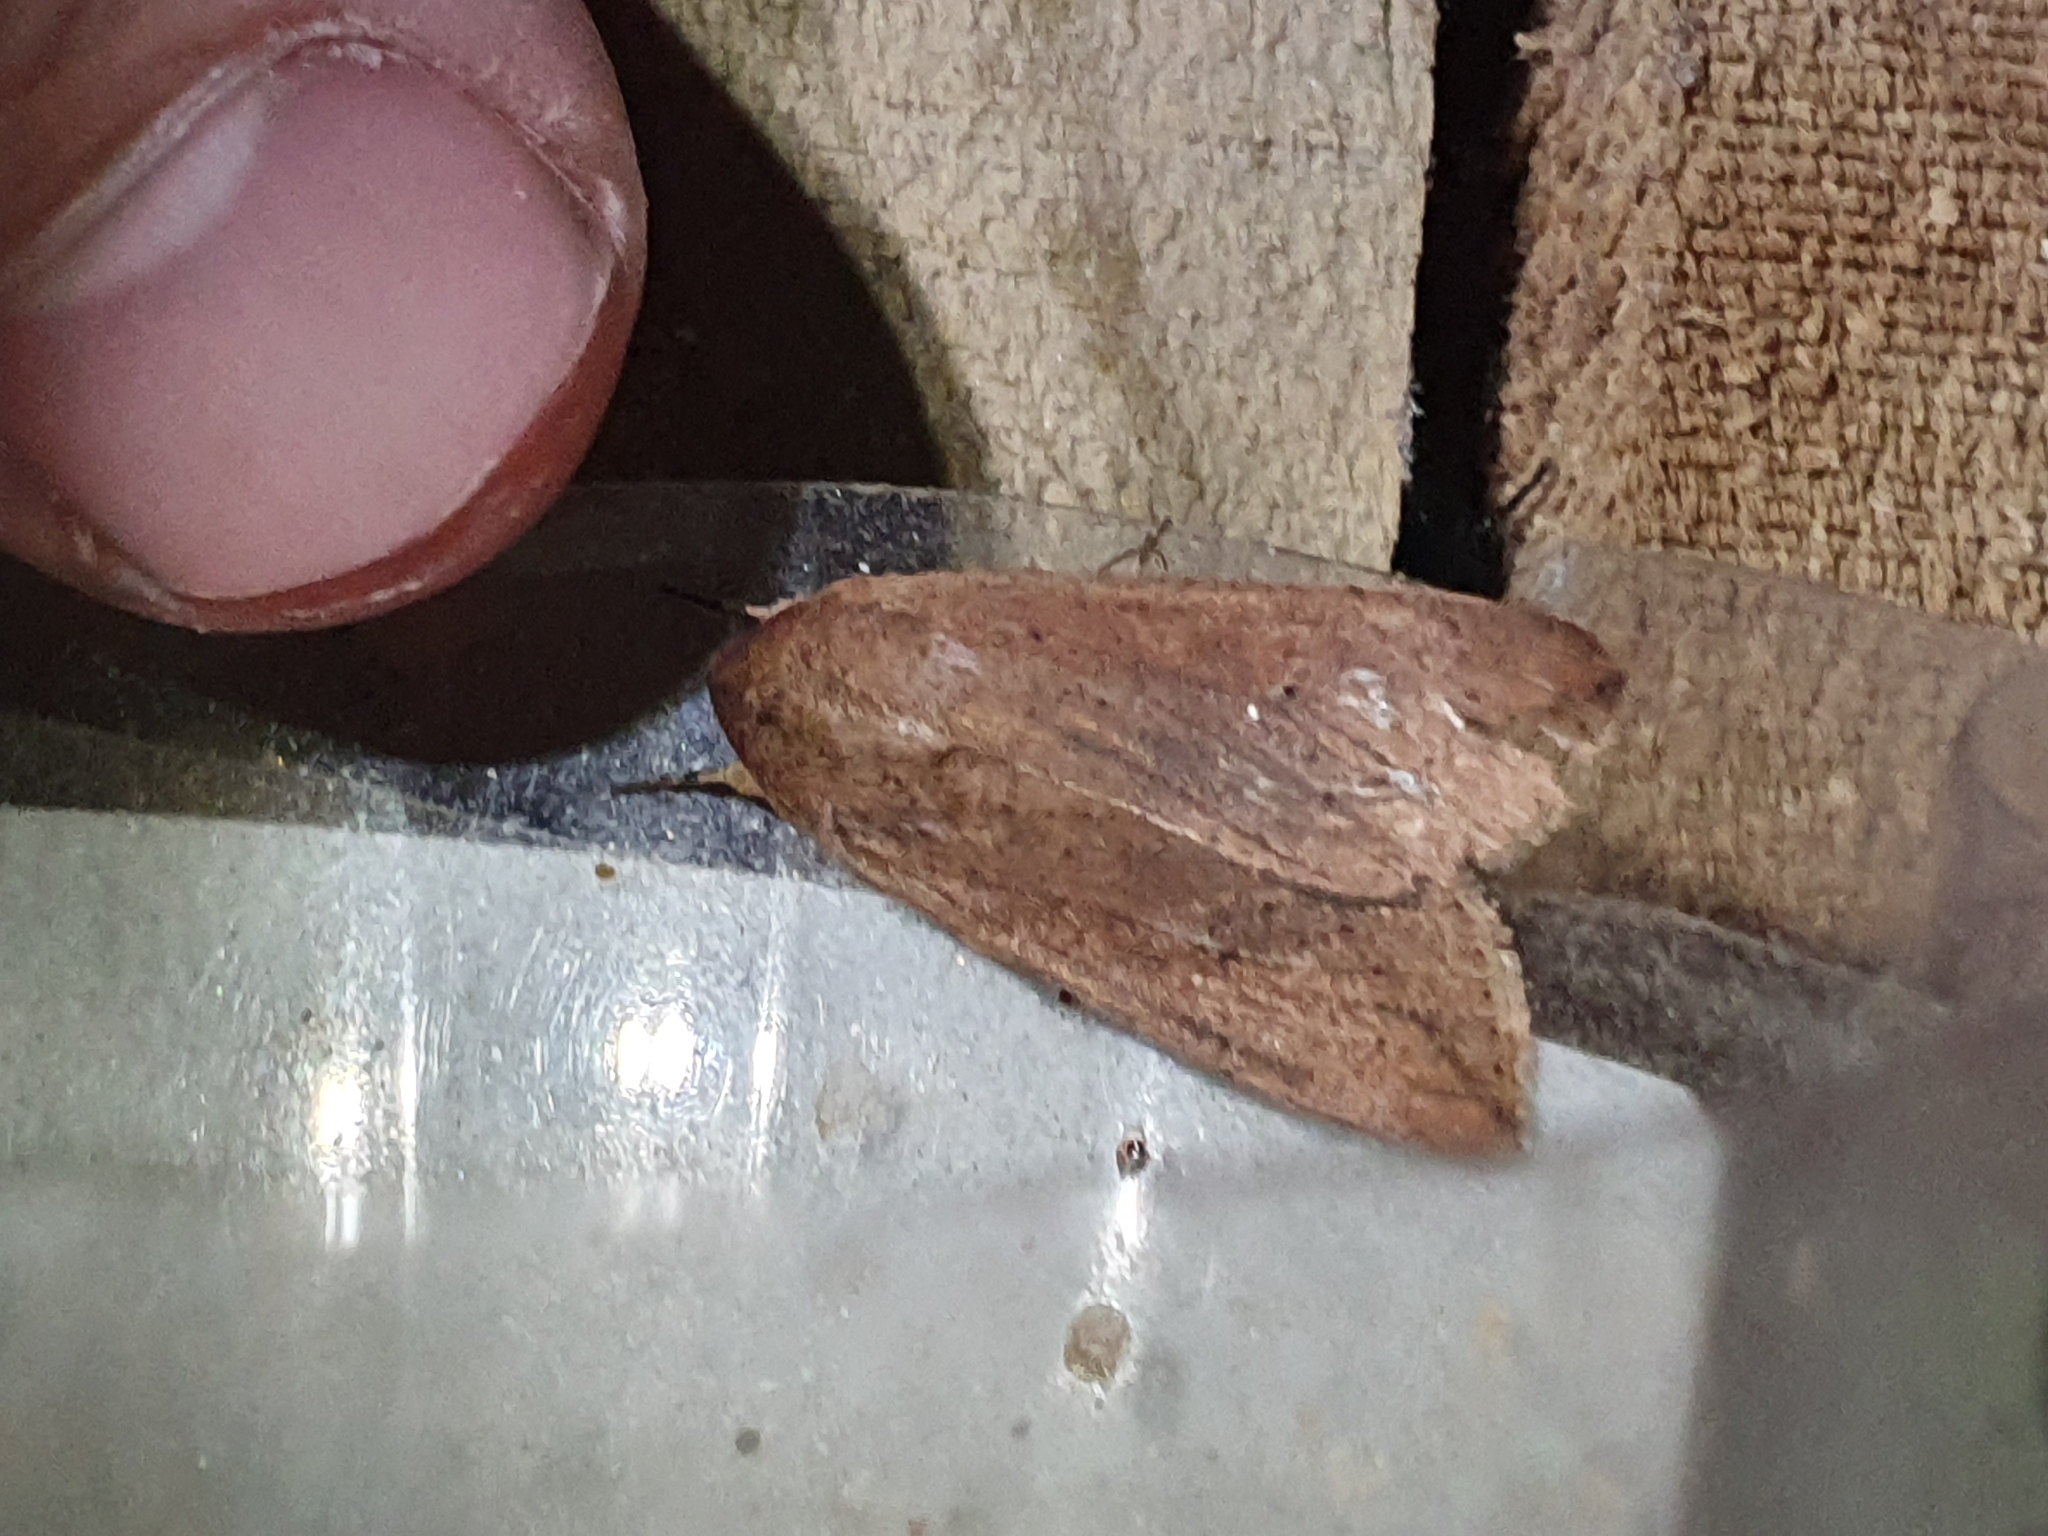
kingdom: Animalia
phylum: Arthropoda
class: Insecta
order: Lepidoptera
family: Noctuidae
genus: Mythimna
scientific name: Mythimna separata
